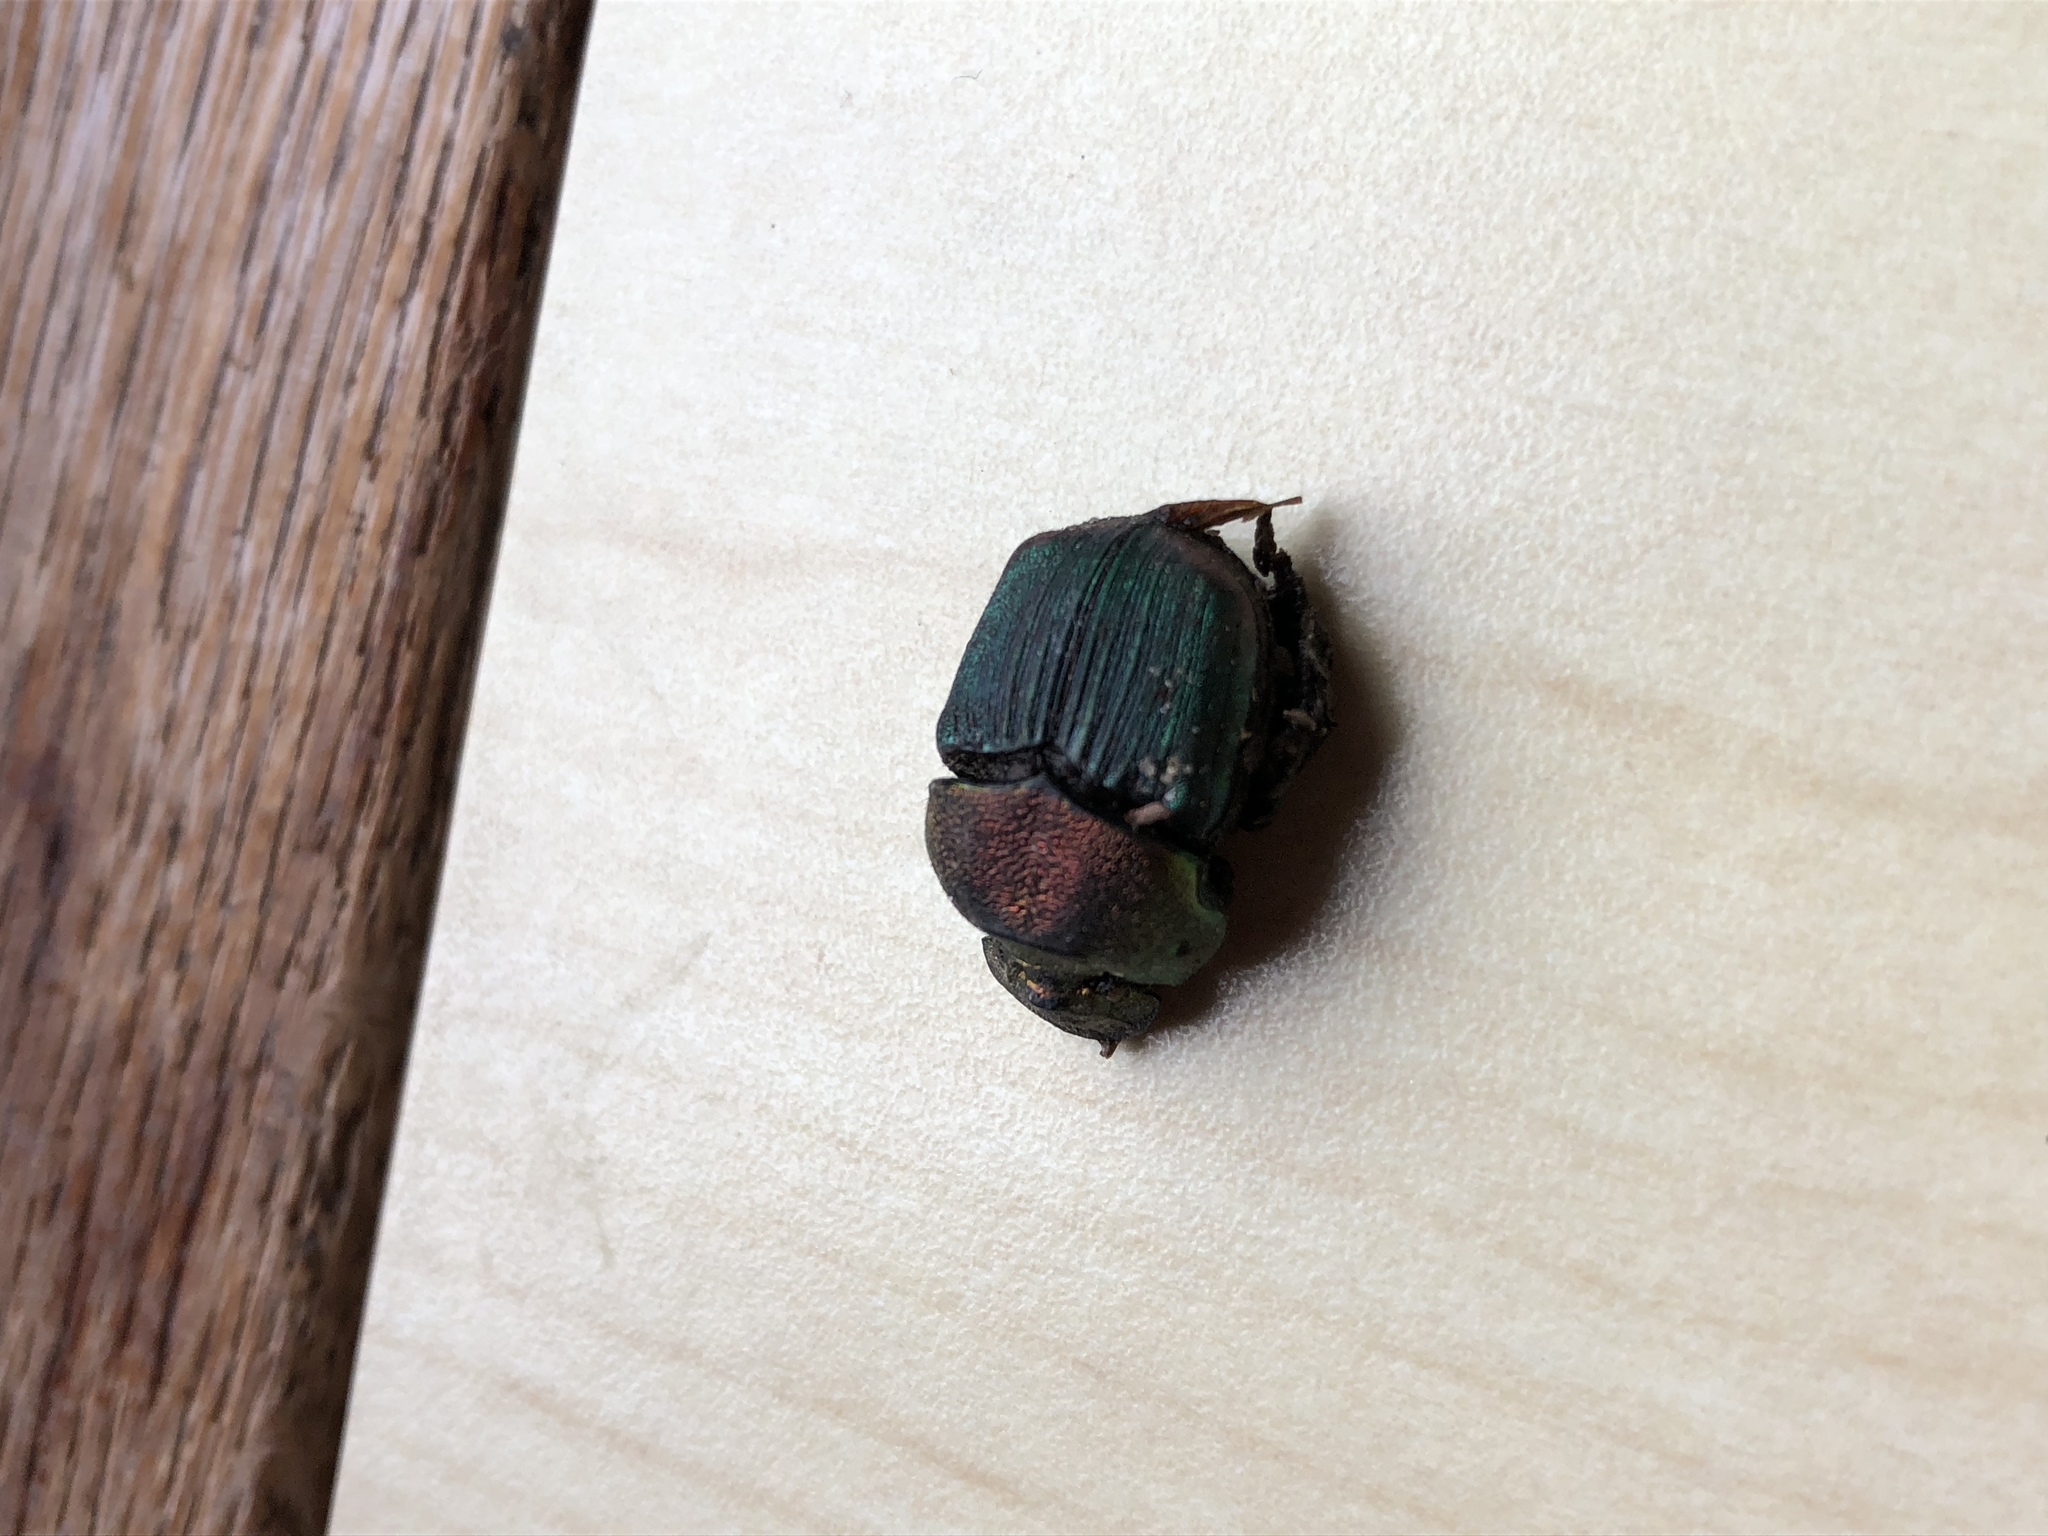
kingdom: Animalia
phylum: Arthropoda
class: Insecta
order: Coleoptera
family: Scarabaeidae
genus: Phanaeus
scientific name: Phanaeus vindex
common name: Rainbow scarab
